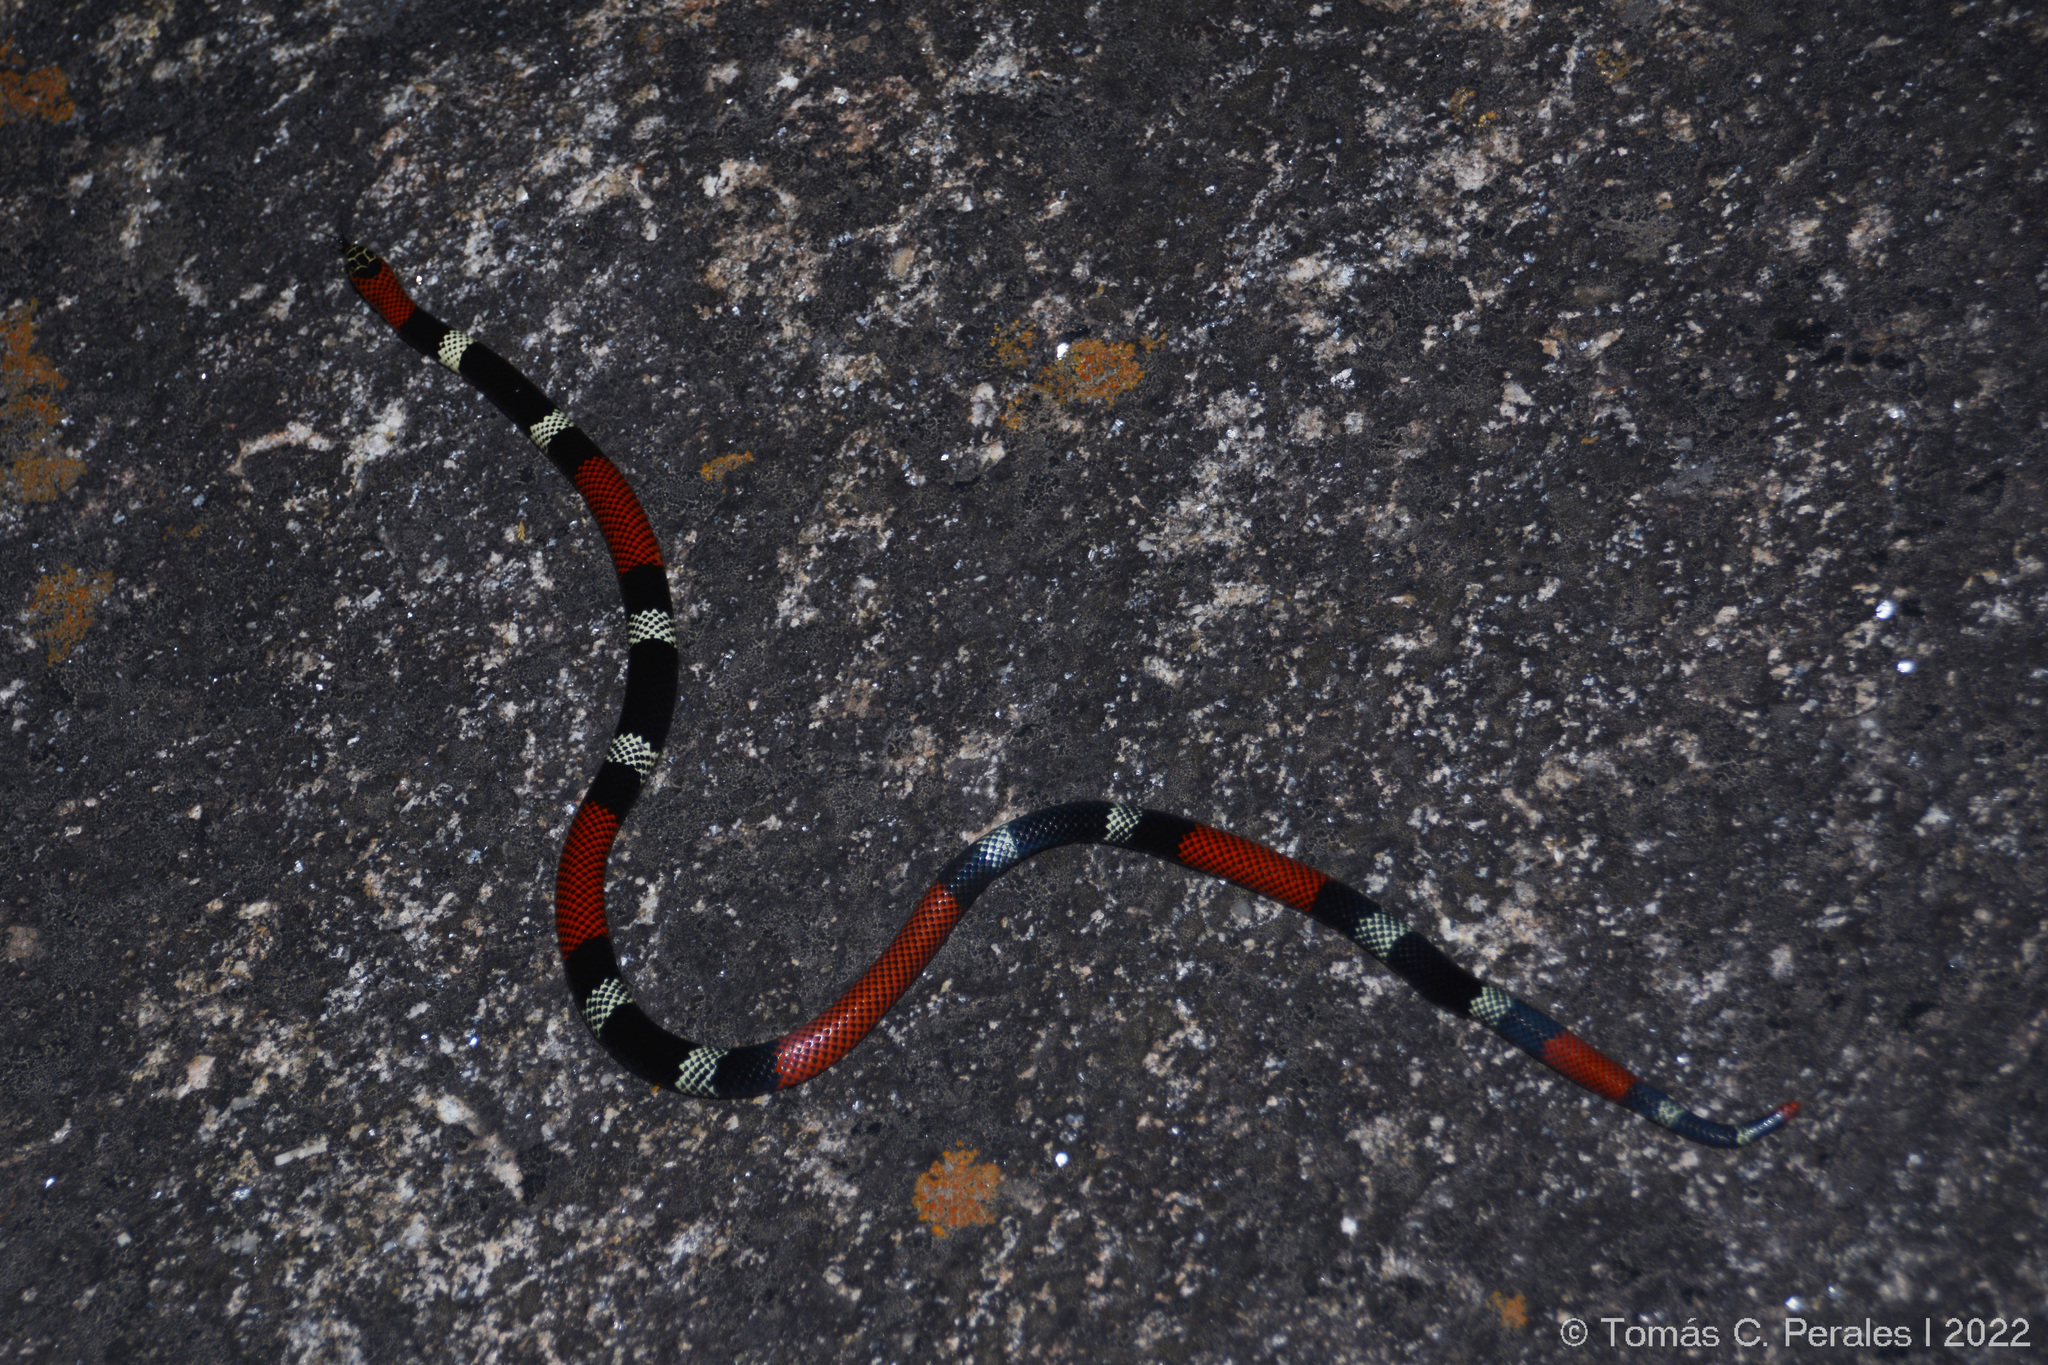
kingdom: Animalia
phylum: Chordata
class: Squamata
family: Elapidae
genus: Micrurus
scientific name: Micrurus pyrrhocryptus
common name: Argentinian coral snake
